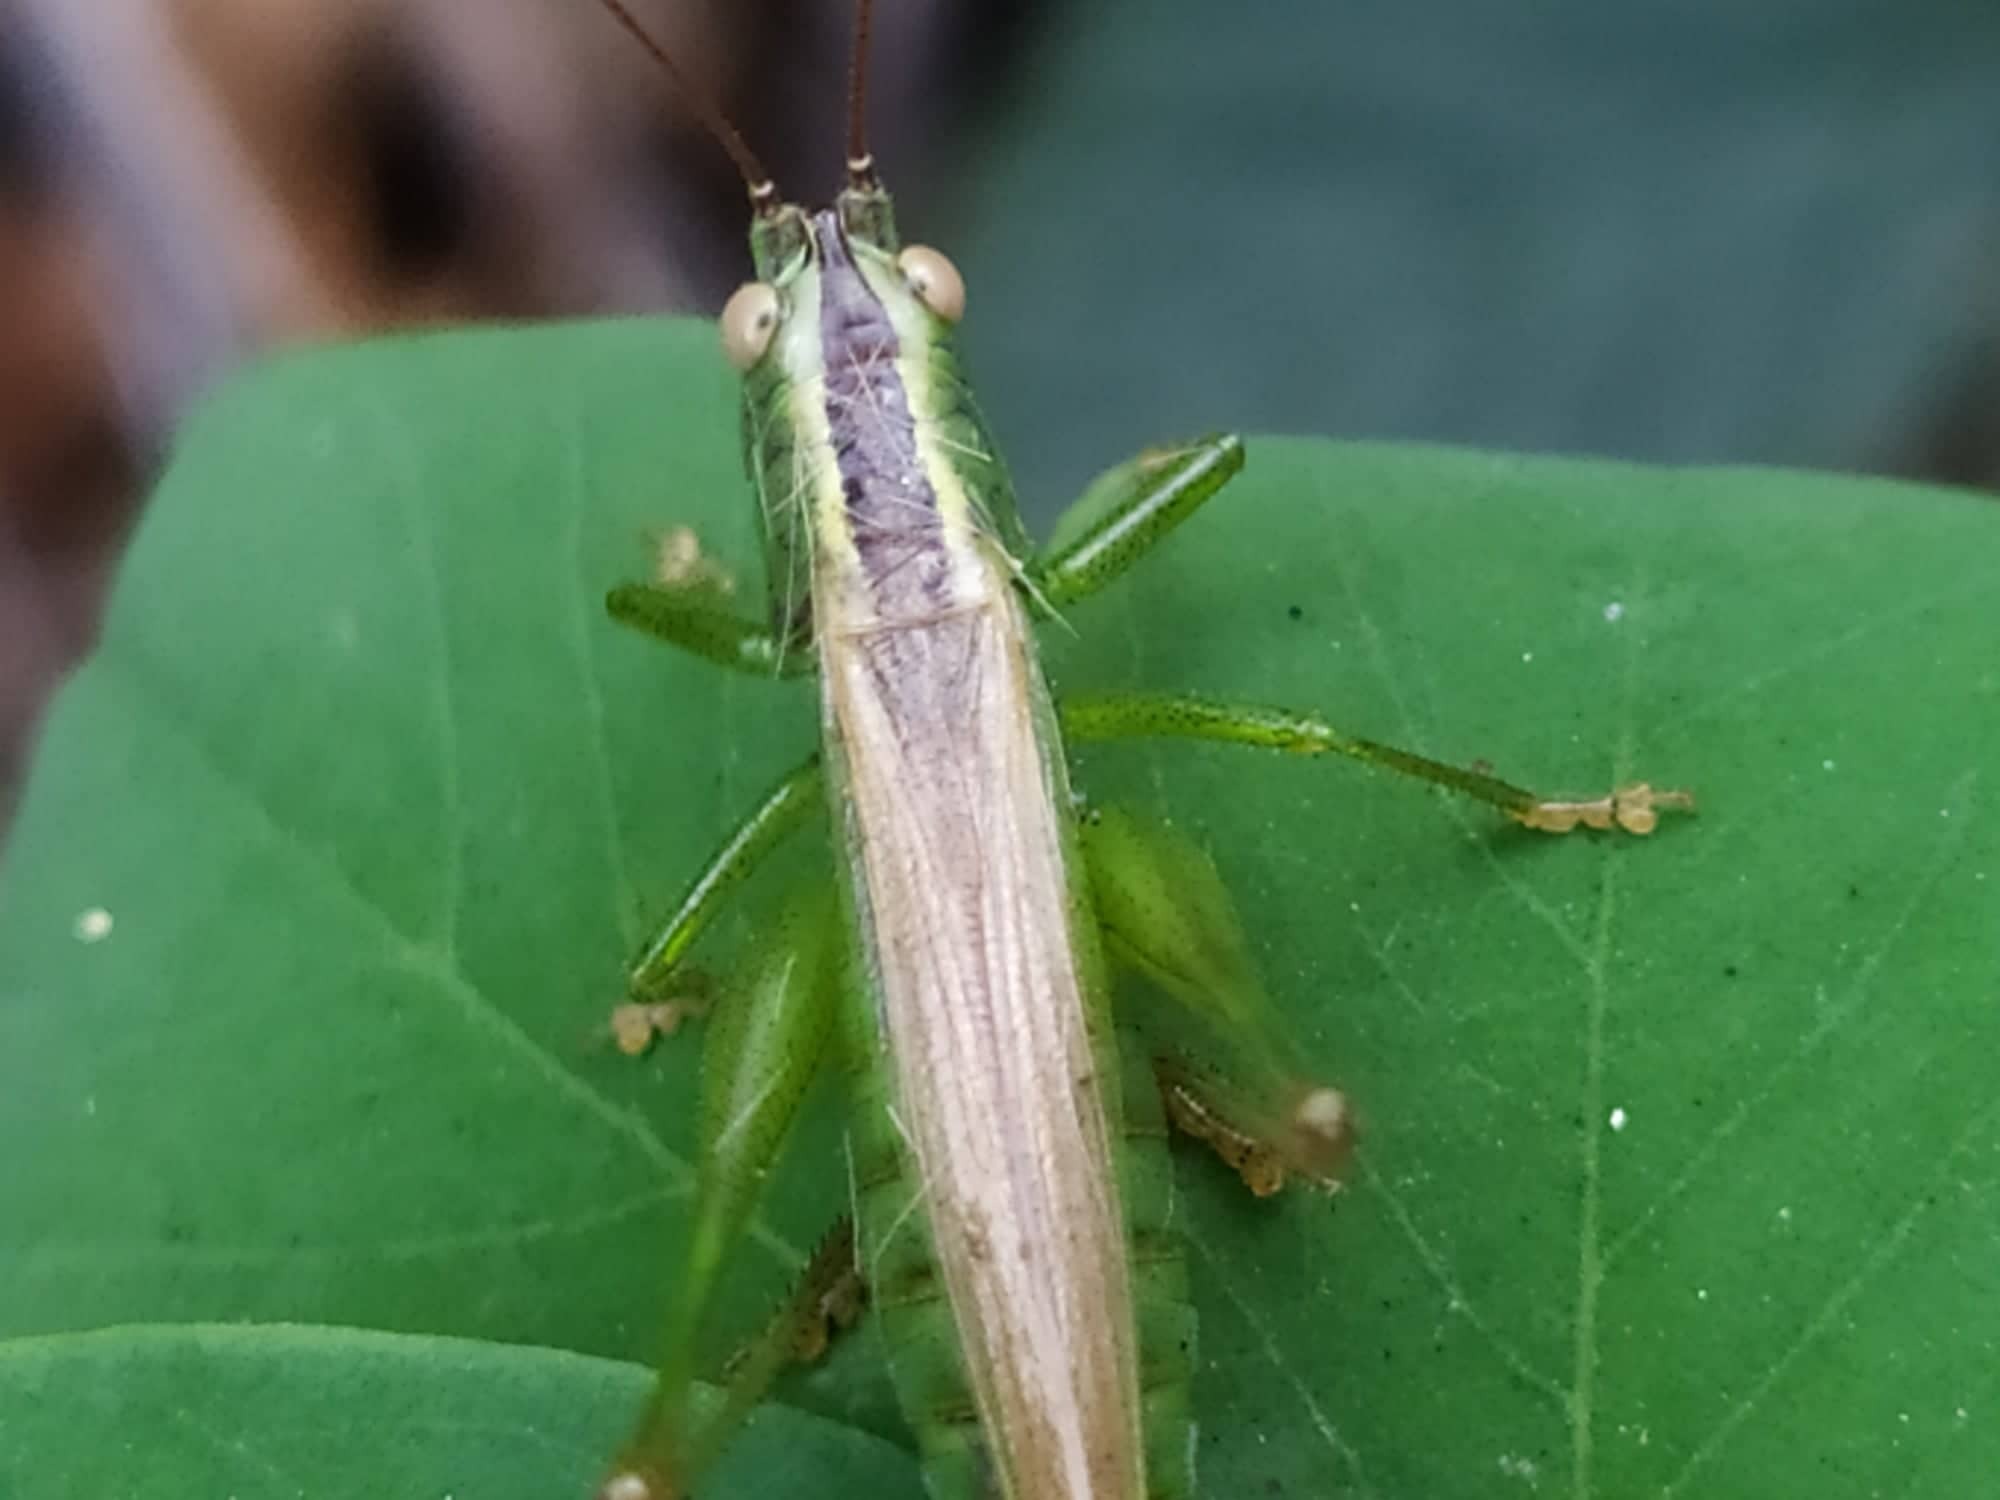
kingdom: Animalia
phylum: Arthropoda
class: Insecta
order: Orthoptera
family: Tettigoniidae
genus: Conocephalus
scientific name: Conocephalus fuscus
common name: Long-winged conehead
